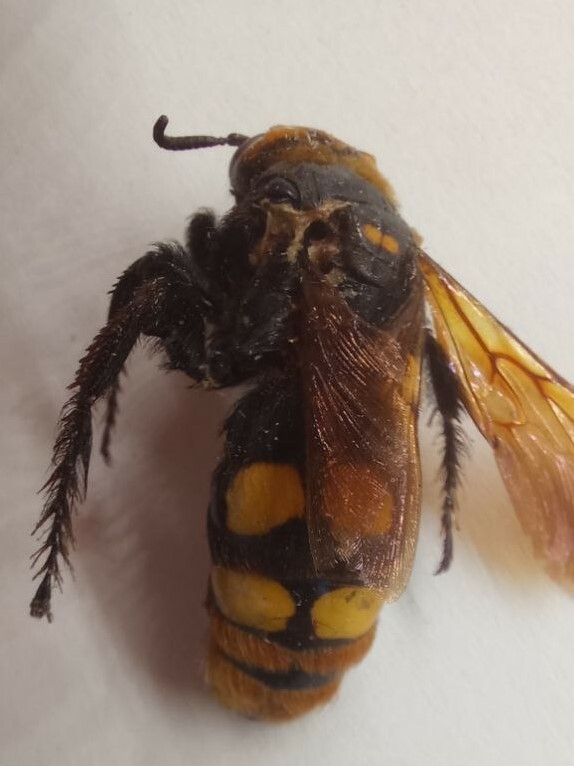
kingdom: Animalia
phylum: Arthropoda
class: Insecta
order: Hymenoptera
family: Scoliidae
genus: Megascolia
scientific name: Megascolia maculata
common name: Mammoth wasp
